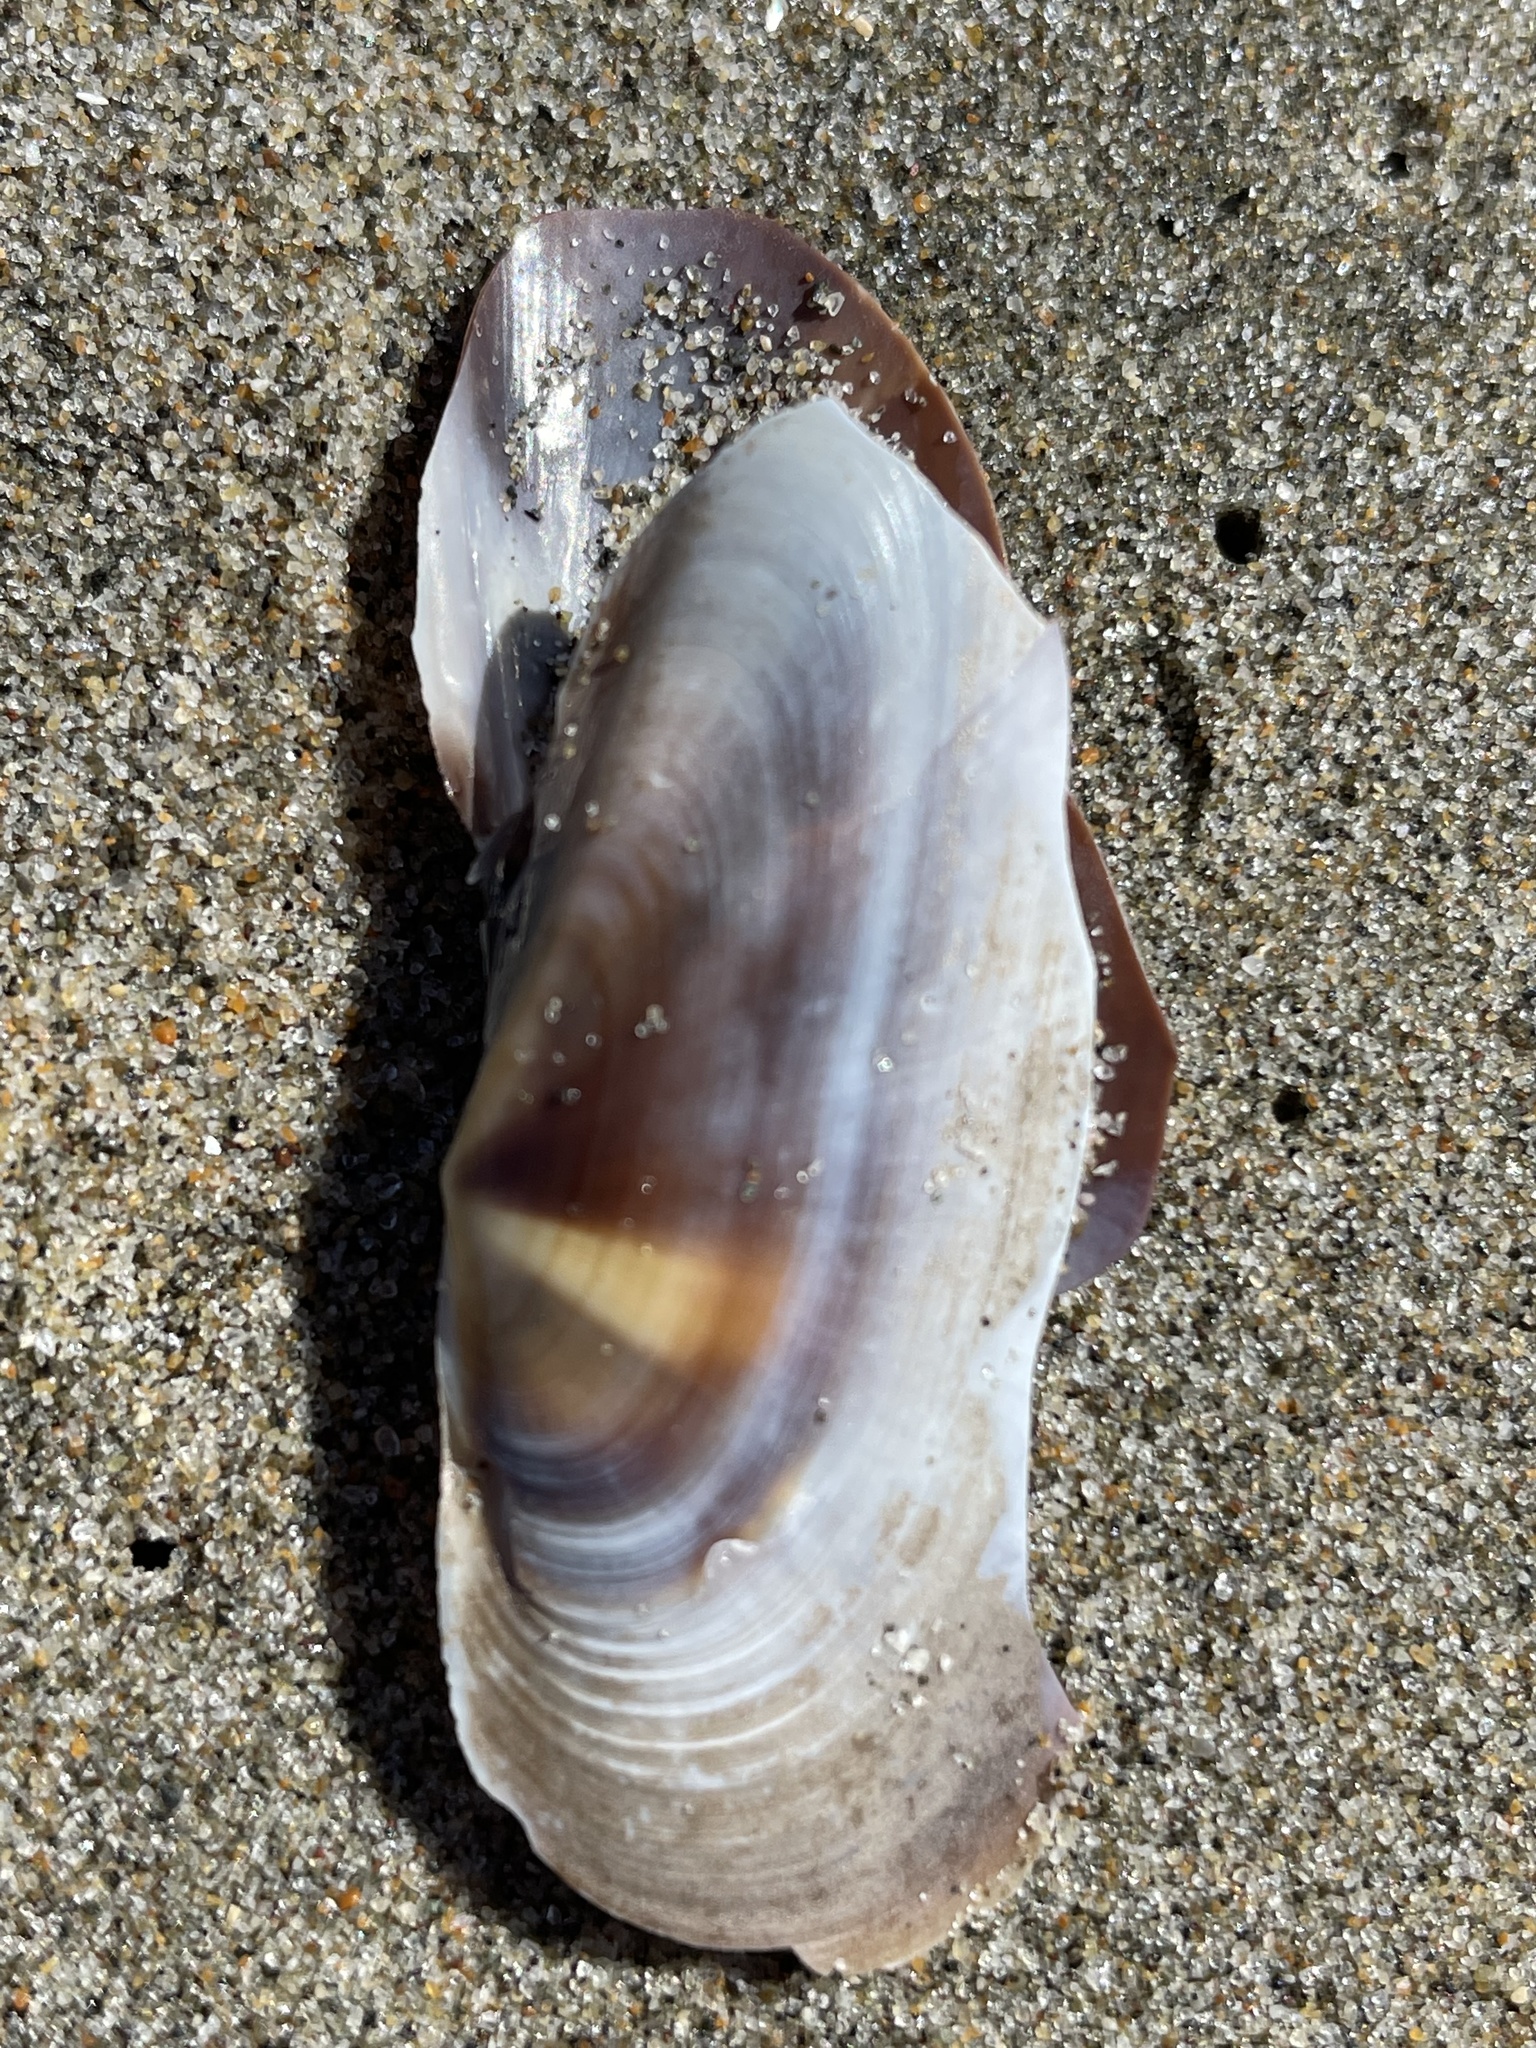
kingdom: Animalia
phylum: Mollusca
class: Bivalvia
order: Adapedonta
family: Pharidae
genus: Siliqua
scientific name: Siliqua patula
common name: Pacific razor clam
